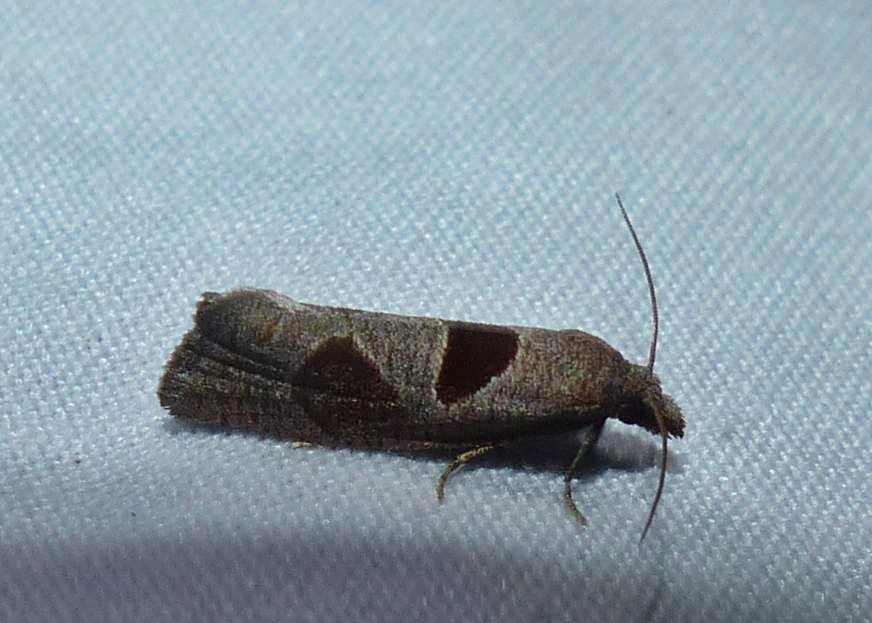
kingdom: Animalia
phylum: Arthropoda
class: Insecta
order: Lepidoptera
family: Tortricidae
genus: Pelochrista
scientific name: Pelochrista dorsisignatana
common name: Triangle-backed pelochrista moth
